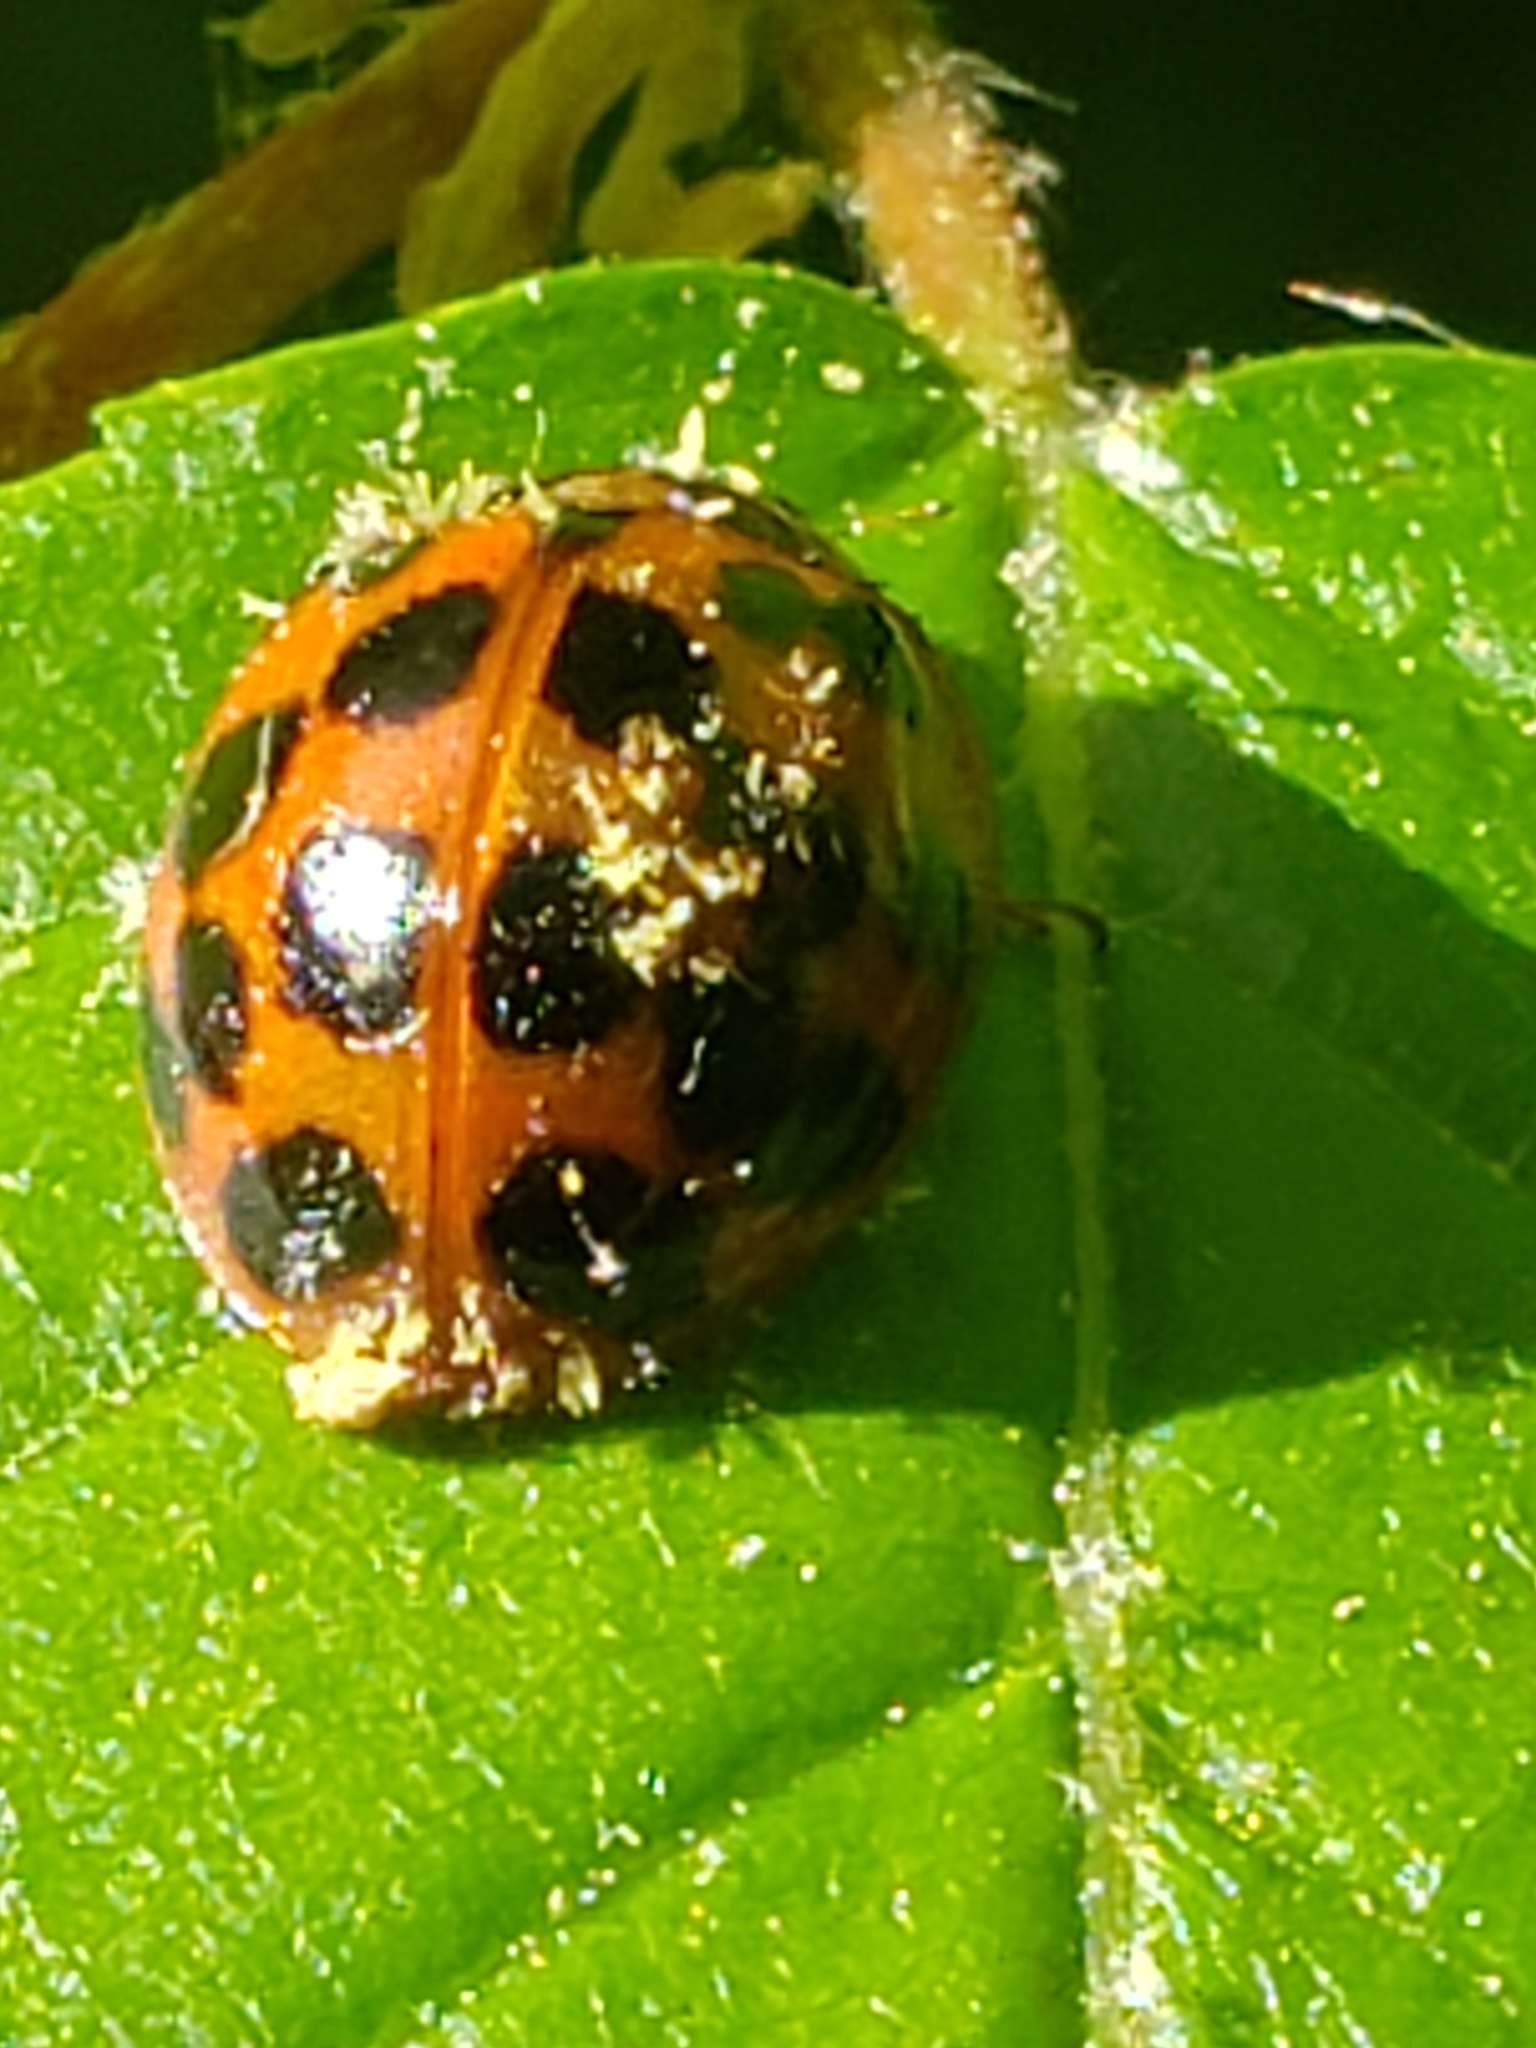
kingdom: Animalia
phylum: Arthropoda
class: Insecta
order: Coleoptera
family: Coccinellidae
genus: Harmonia
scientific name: Harmonia axyridis
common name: Harlequin ladybird
